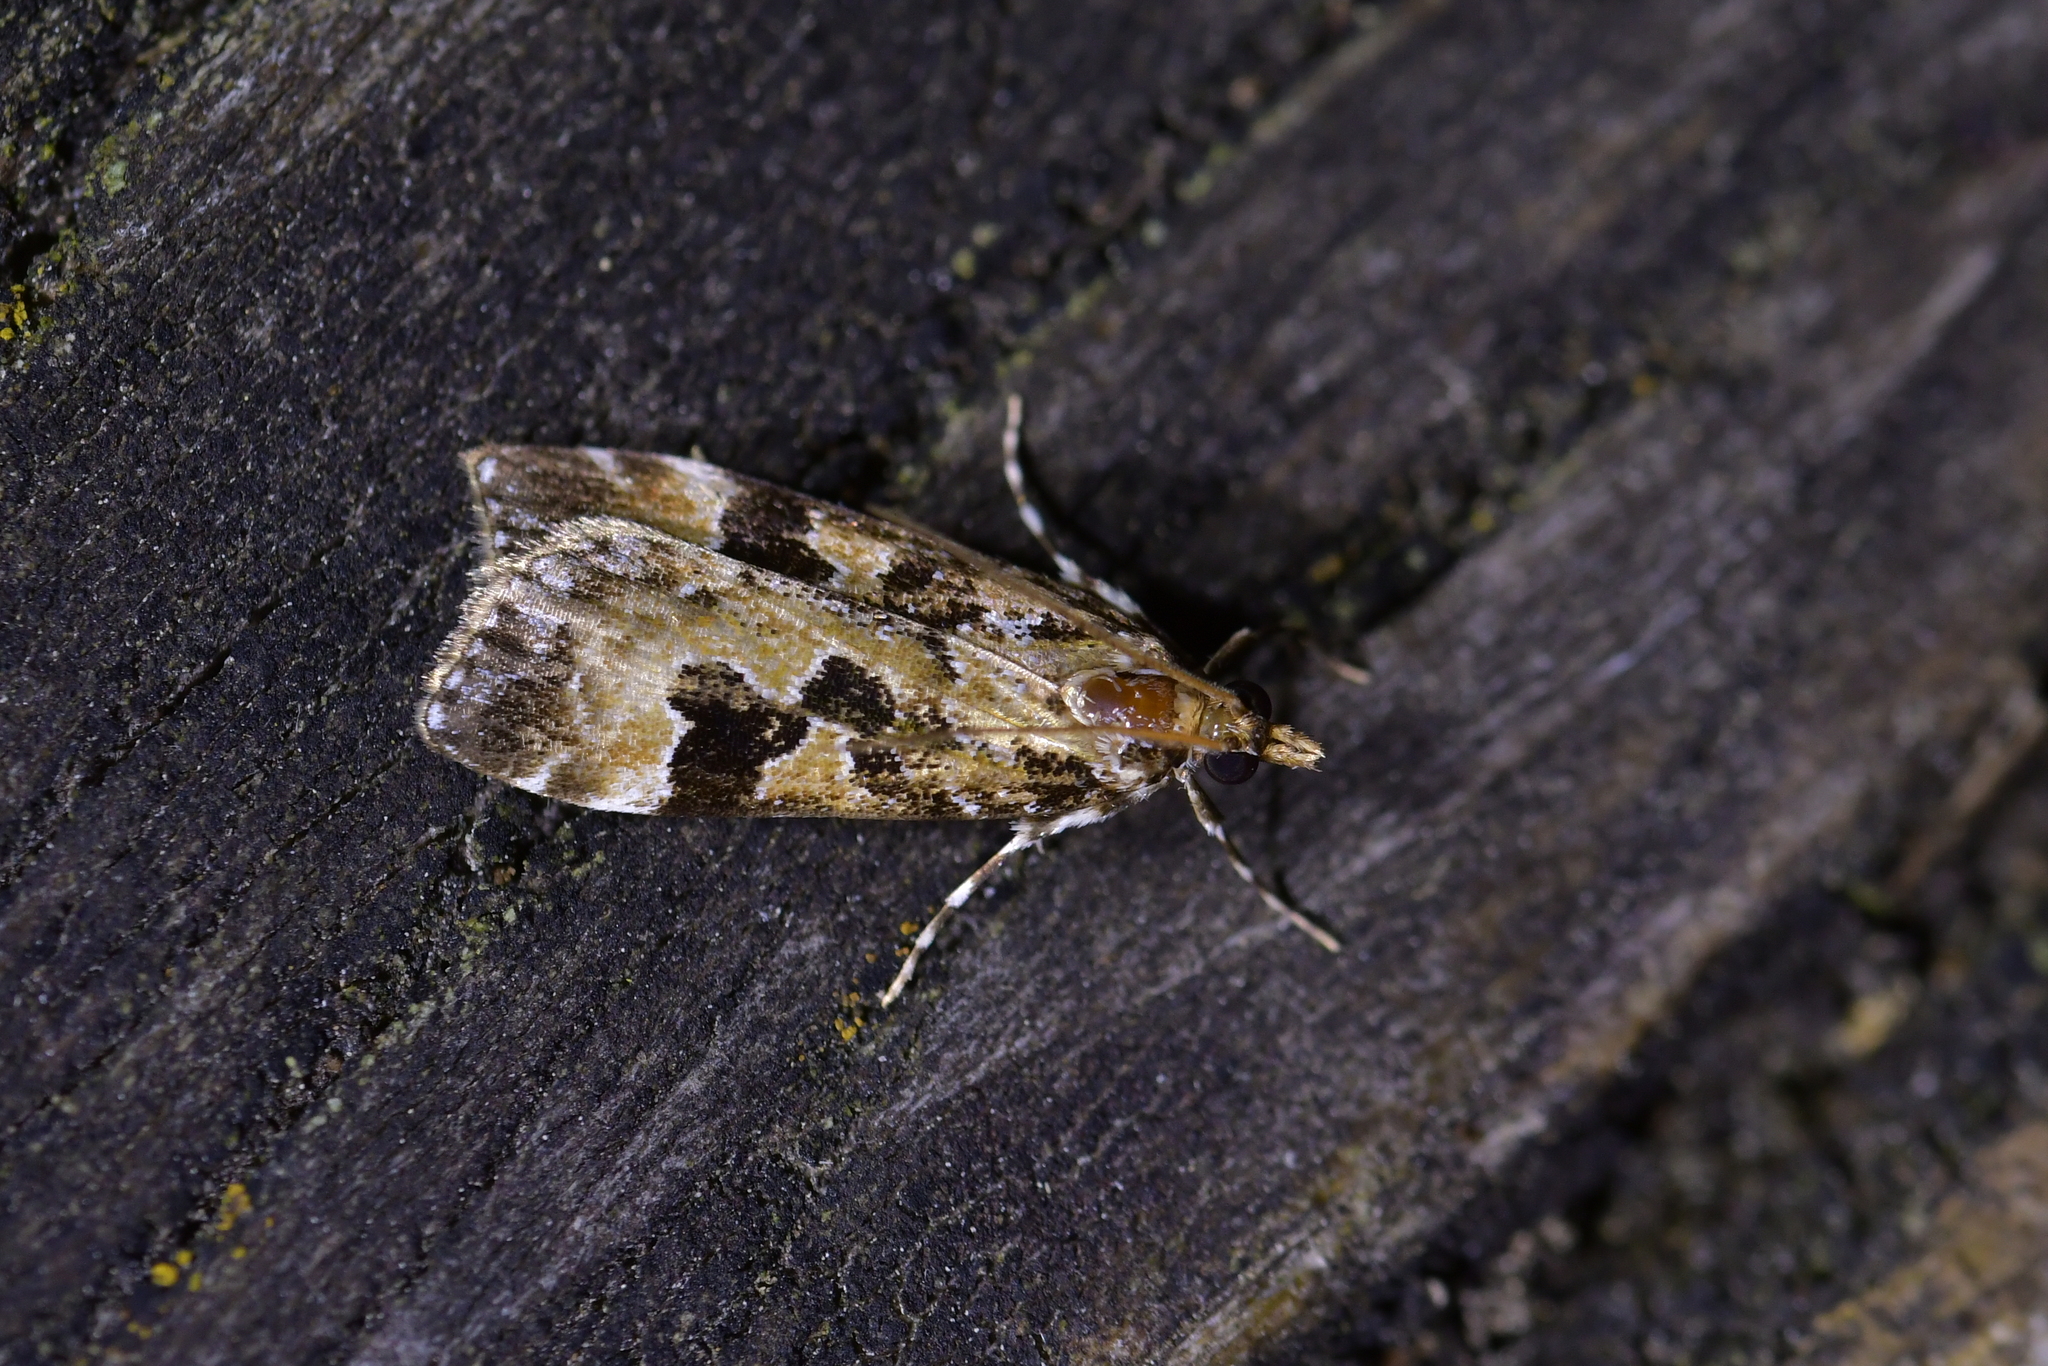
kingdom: Animalia
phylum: Arthropoda
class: Insecta
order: Lepidoptera
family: Crambidae
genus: Scoparia
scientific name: Scoparia ustimacula
